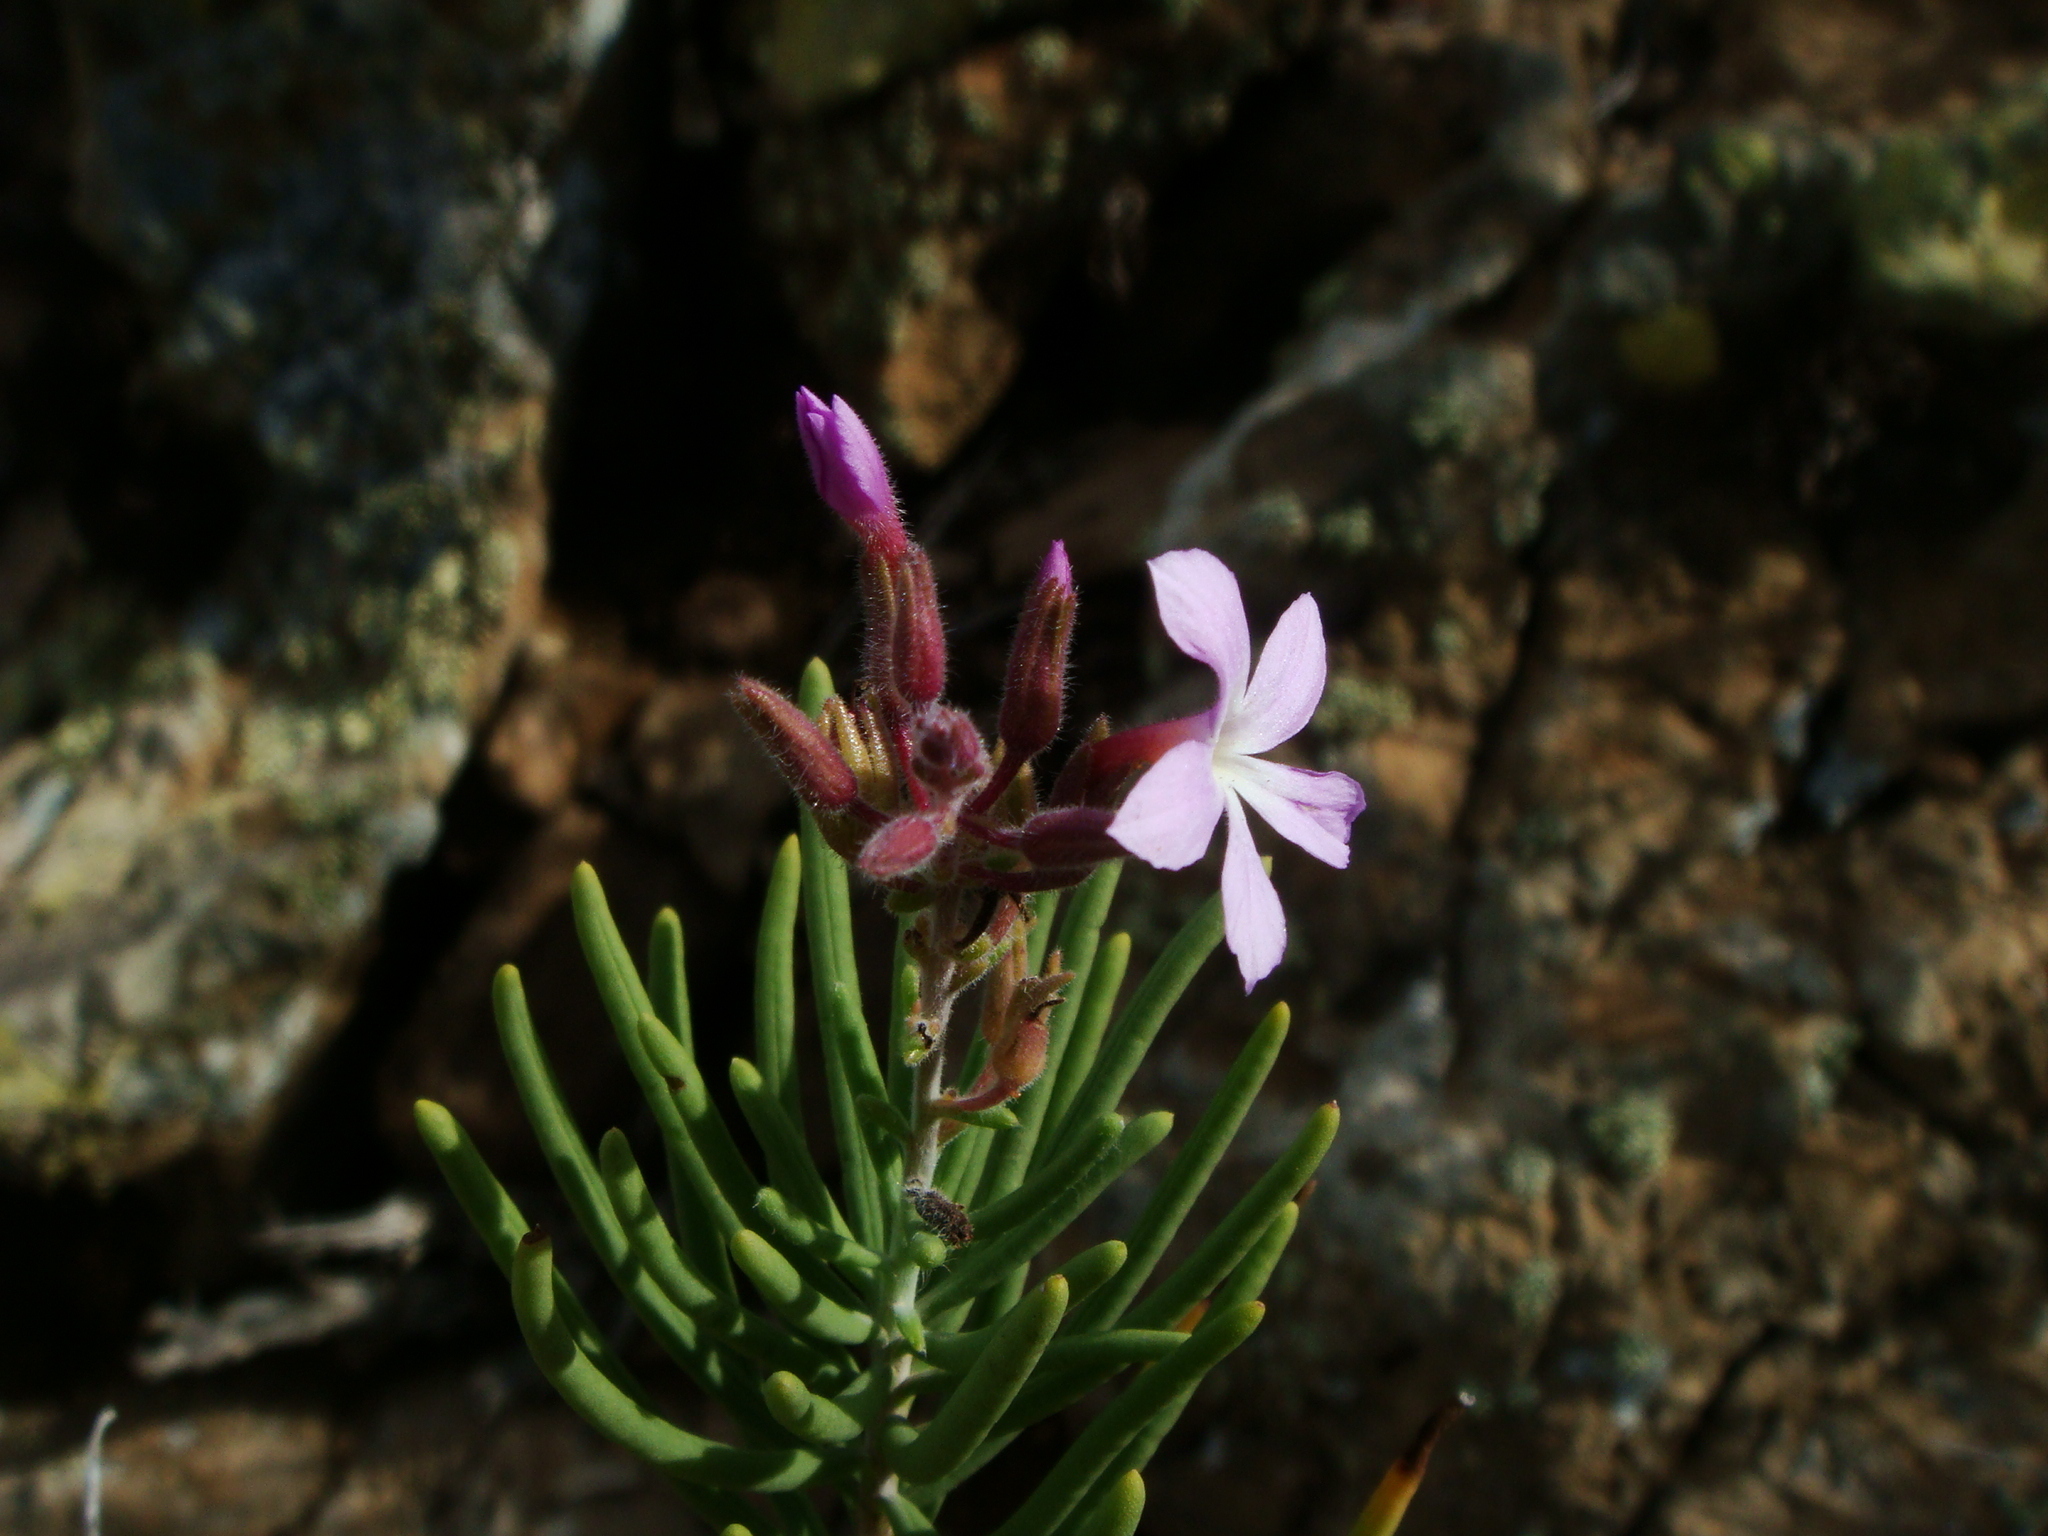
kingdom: Plantae
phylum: Tracheophyta
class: Magnoliopsida
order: Lamiales
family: Plantaginaceae
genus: Campylanthus
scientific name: Campylanthus salsoloides
